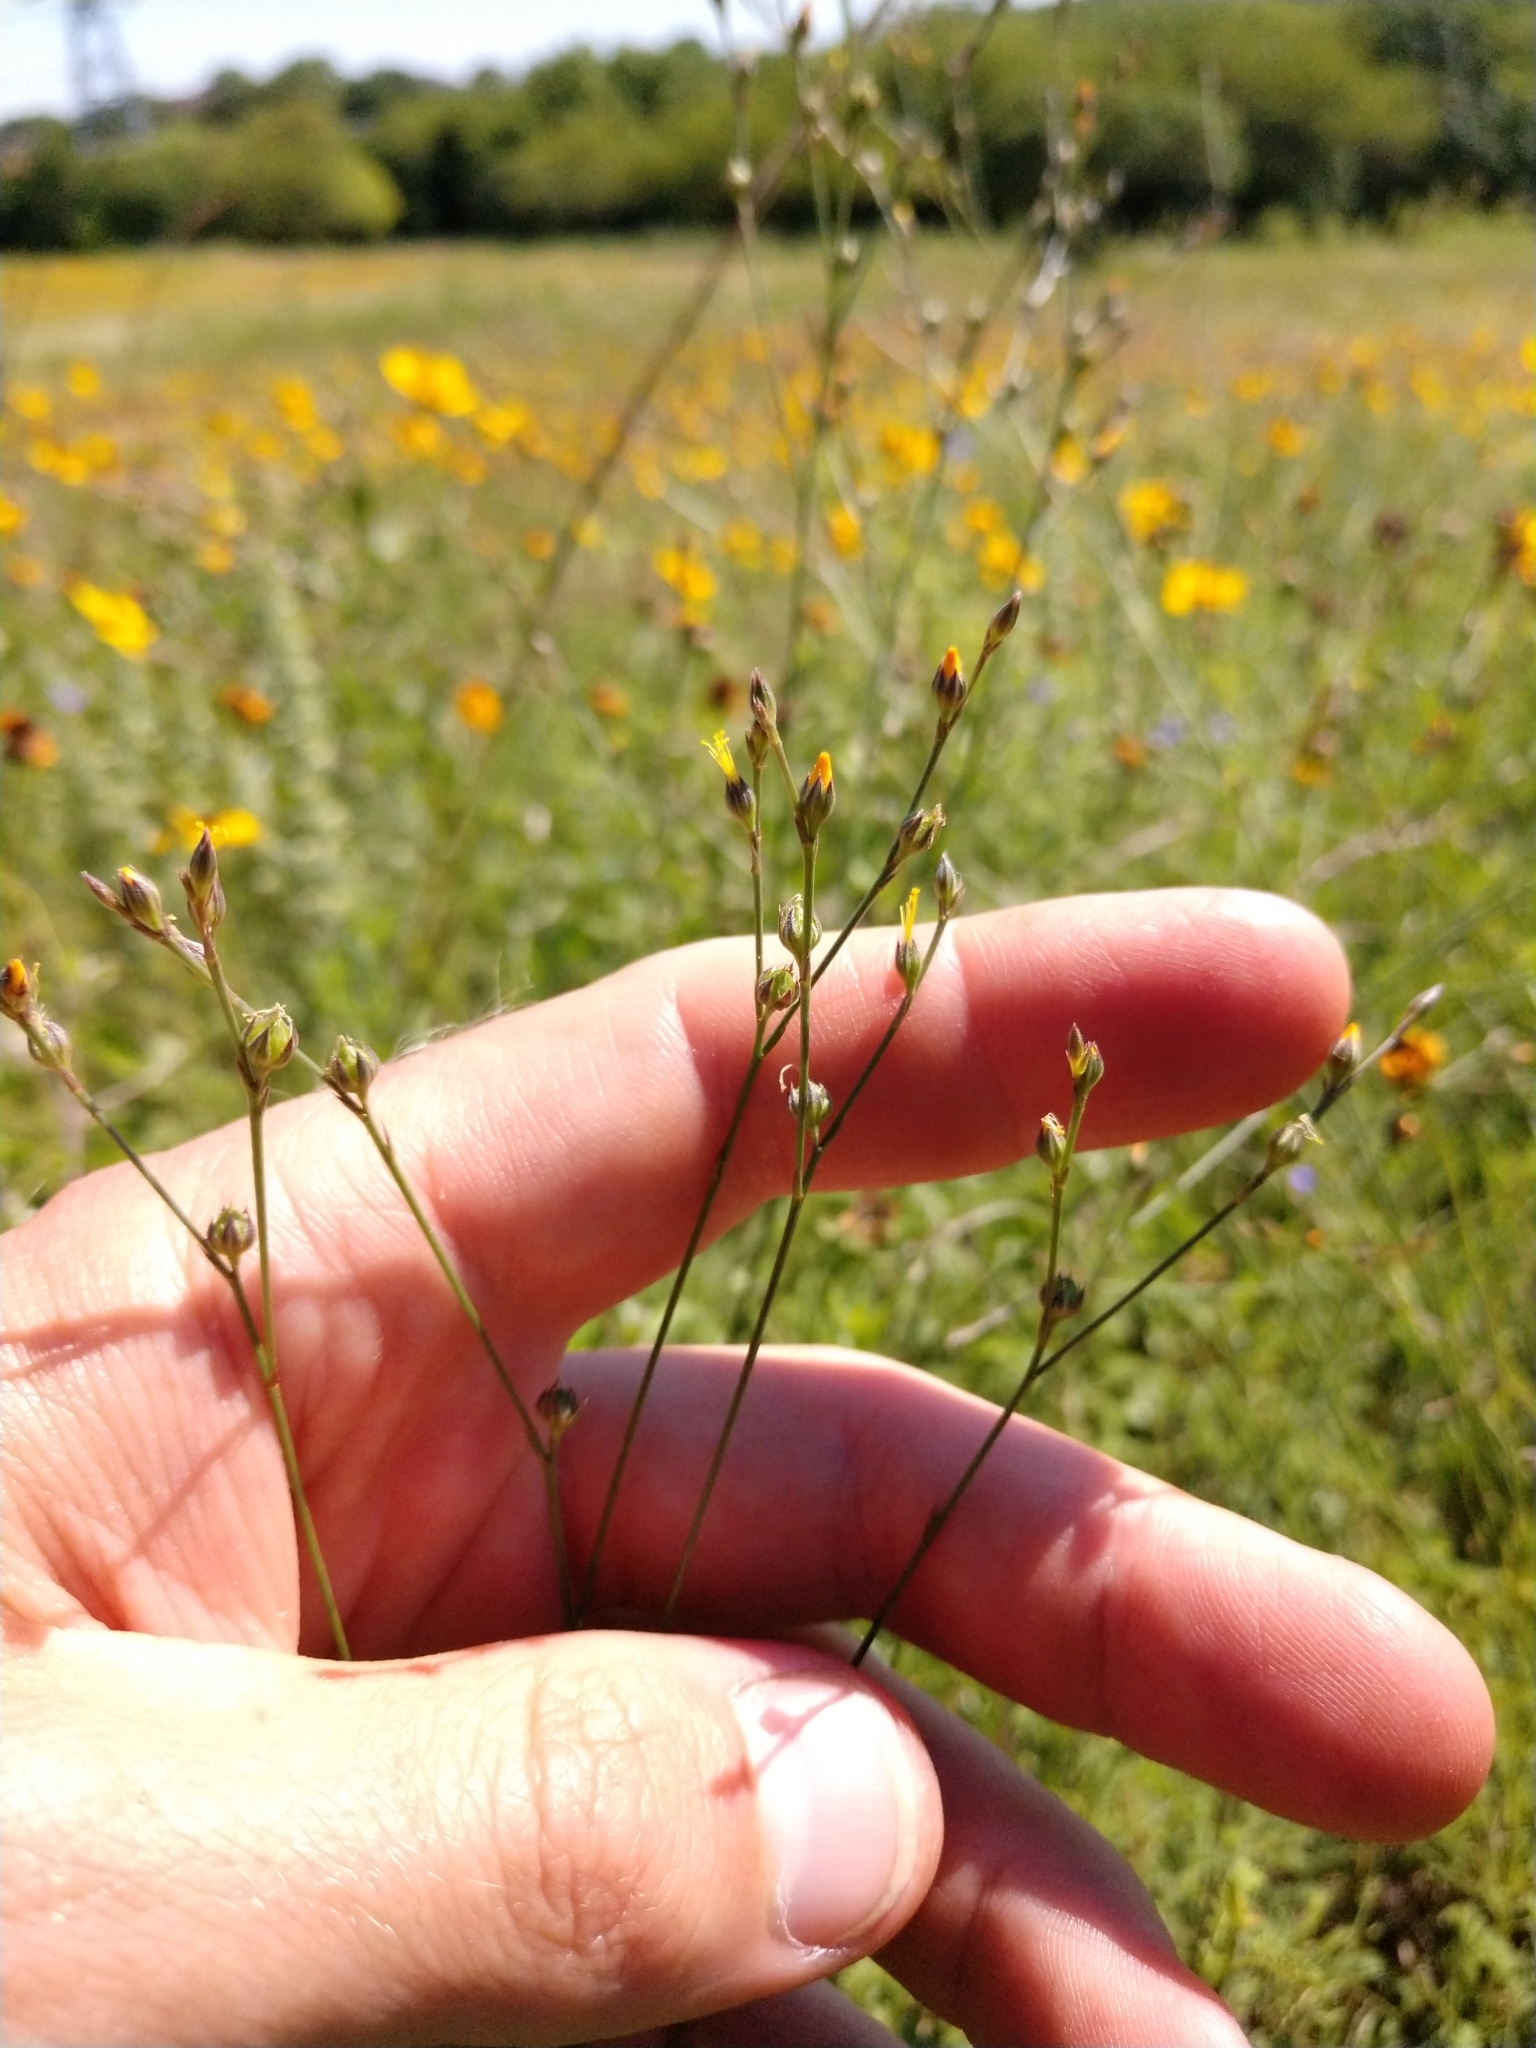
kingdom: Plantae
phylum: Tracheophyta
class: Magnoliopsida
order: Malpighiales
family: Linaceae
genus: Linum
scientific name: Linum rupestre
